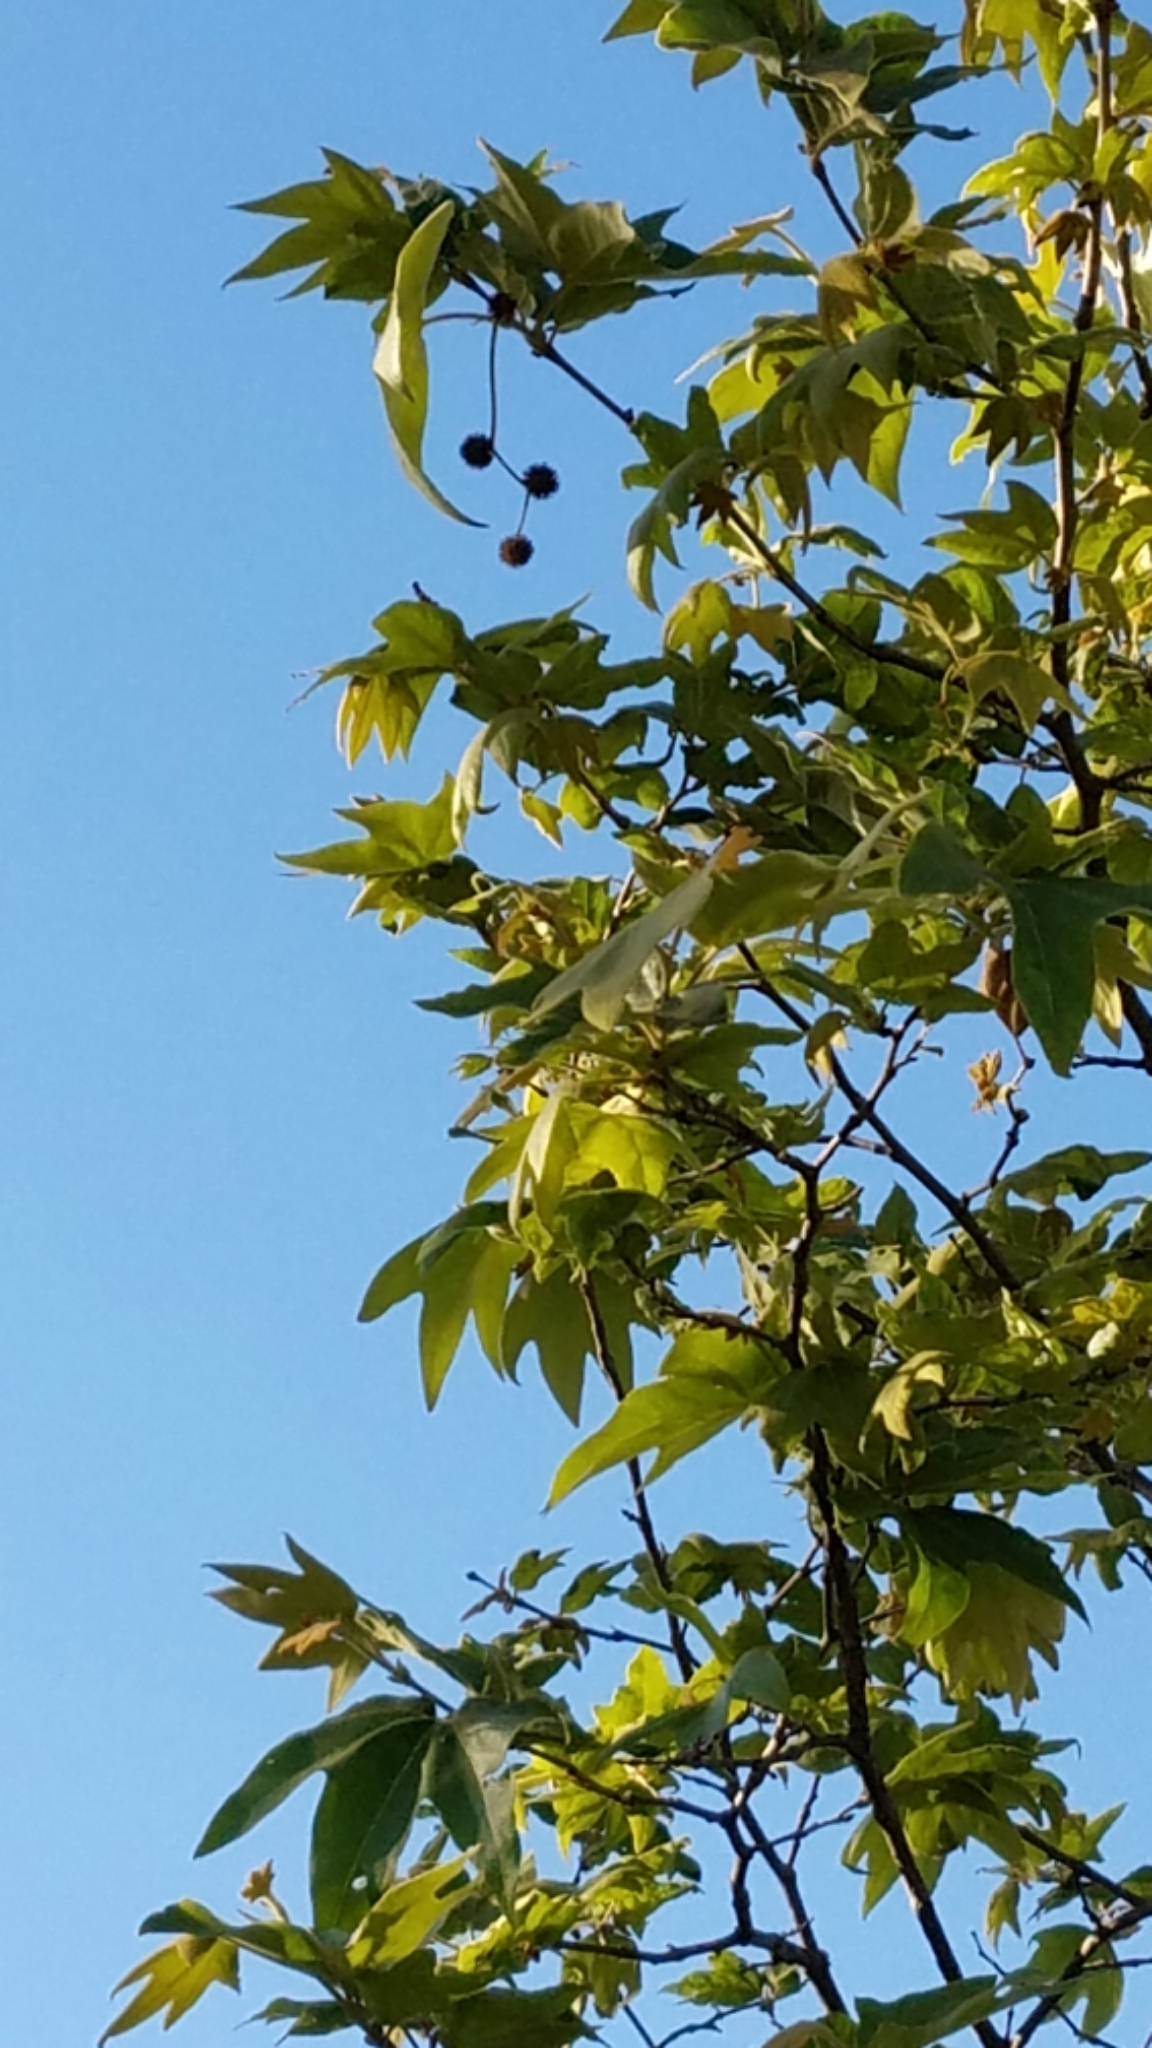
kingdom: Plantae
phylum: Tracheophyta
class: Magnoliopsida
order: Proteales
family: Platanaceae
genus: Platanus
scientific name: Platanus racemosa
